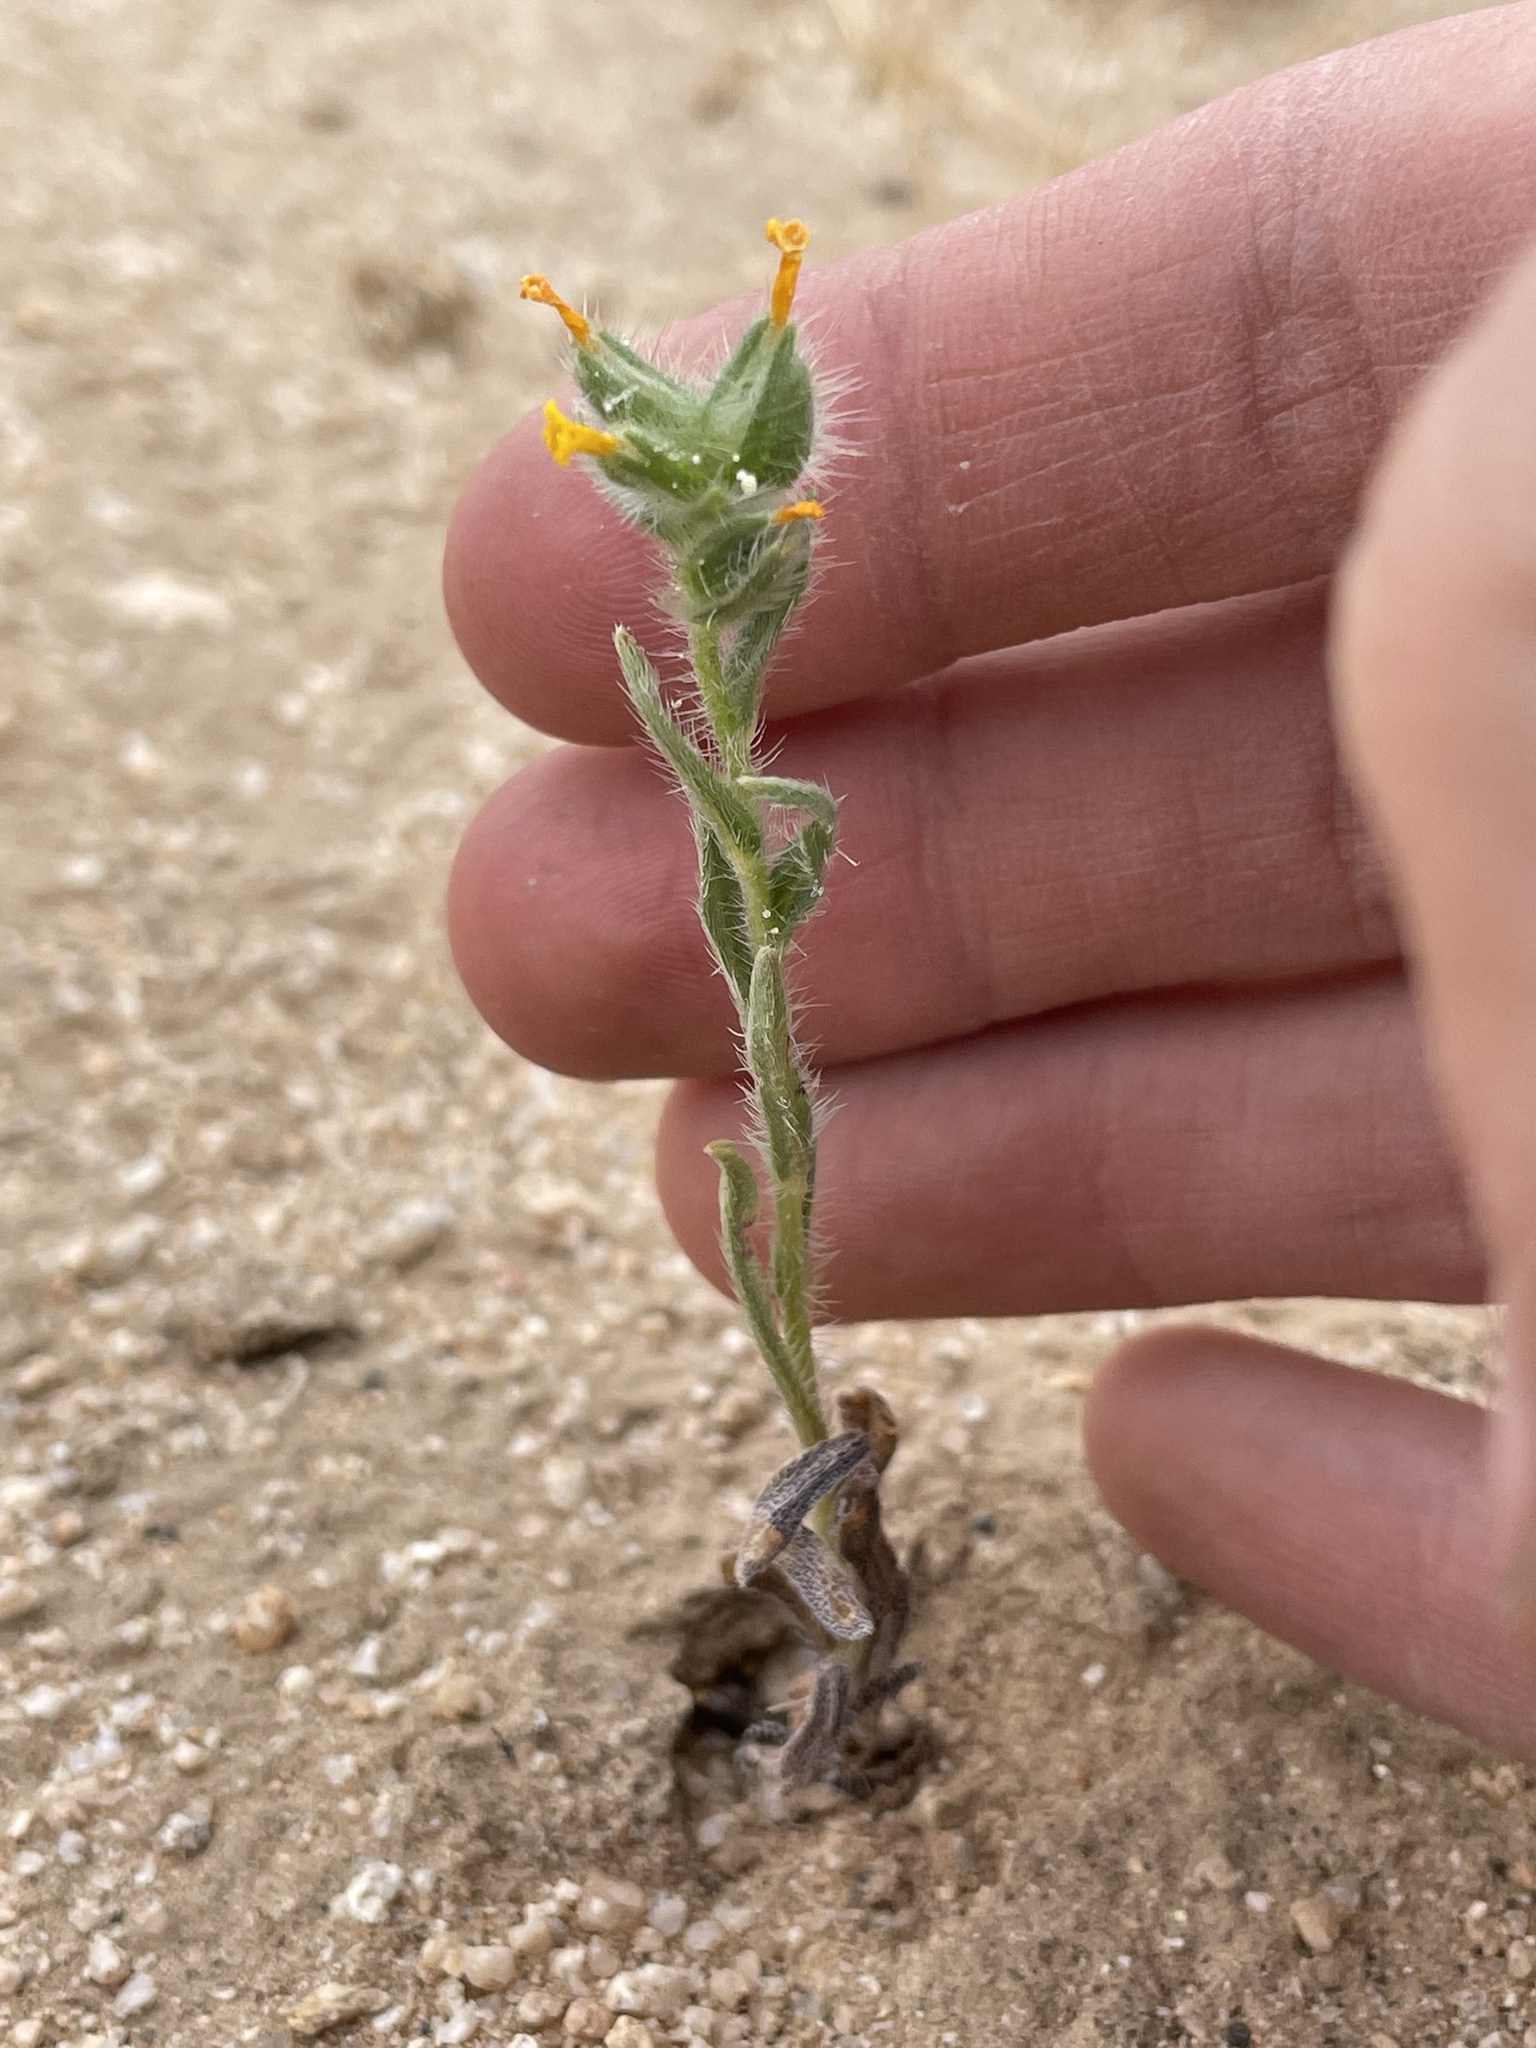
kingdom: Plantae
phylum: Tracheophyta
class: Magnoliopsida
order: Boraginales
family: Boraginaceae
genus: Amsinckia
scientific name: Amsinckia tessellata
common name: Tessellate fiddleneck
